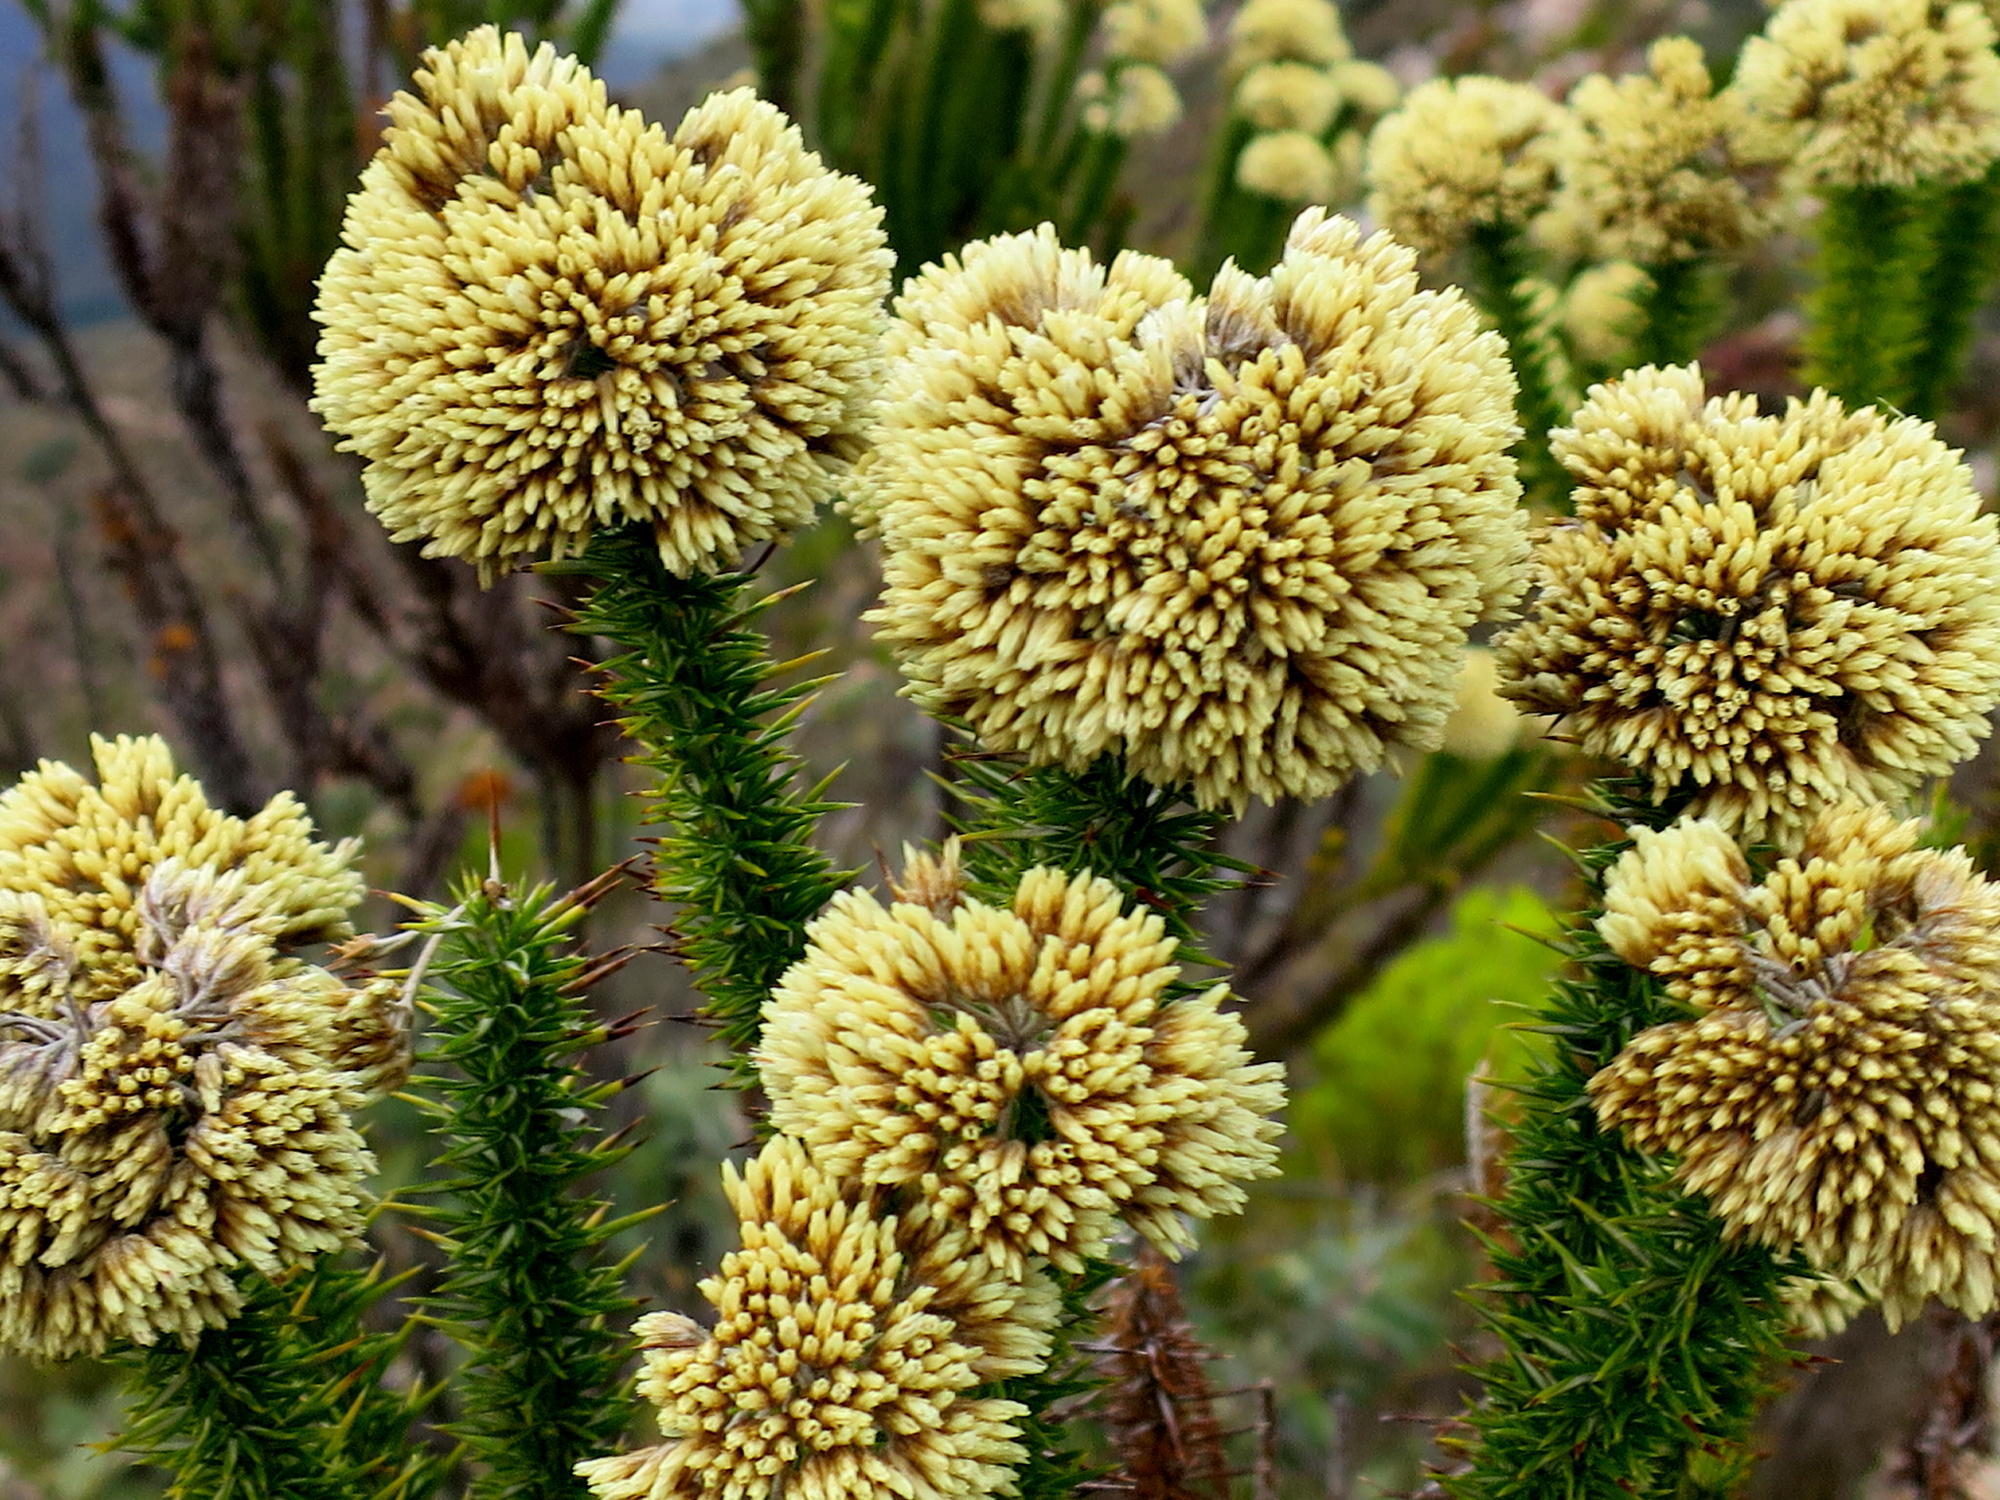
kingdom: Plantae
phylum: Tracheophyta
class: Magnoliopsida
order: Asterales
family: Asteraceae
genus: Metalasia
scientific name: Metalasia acuta
